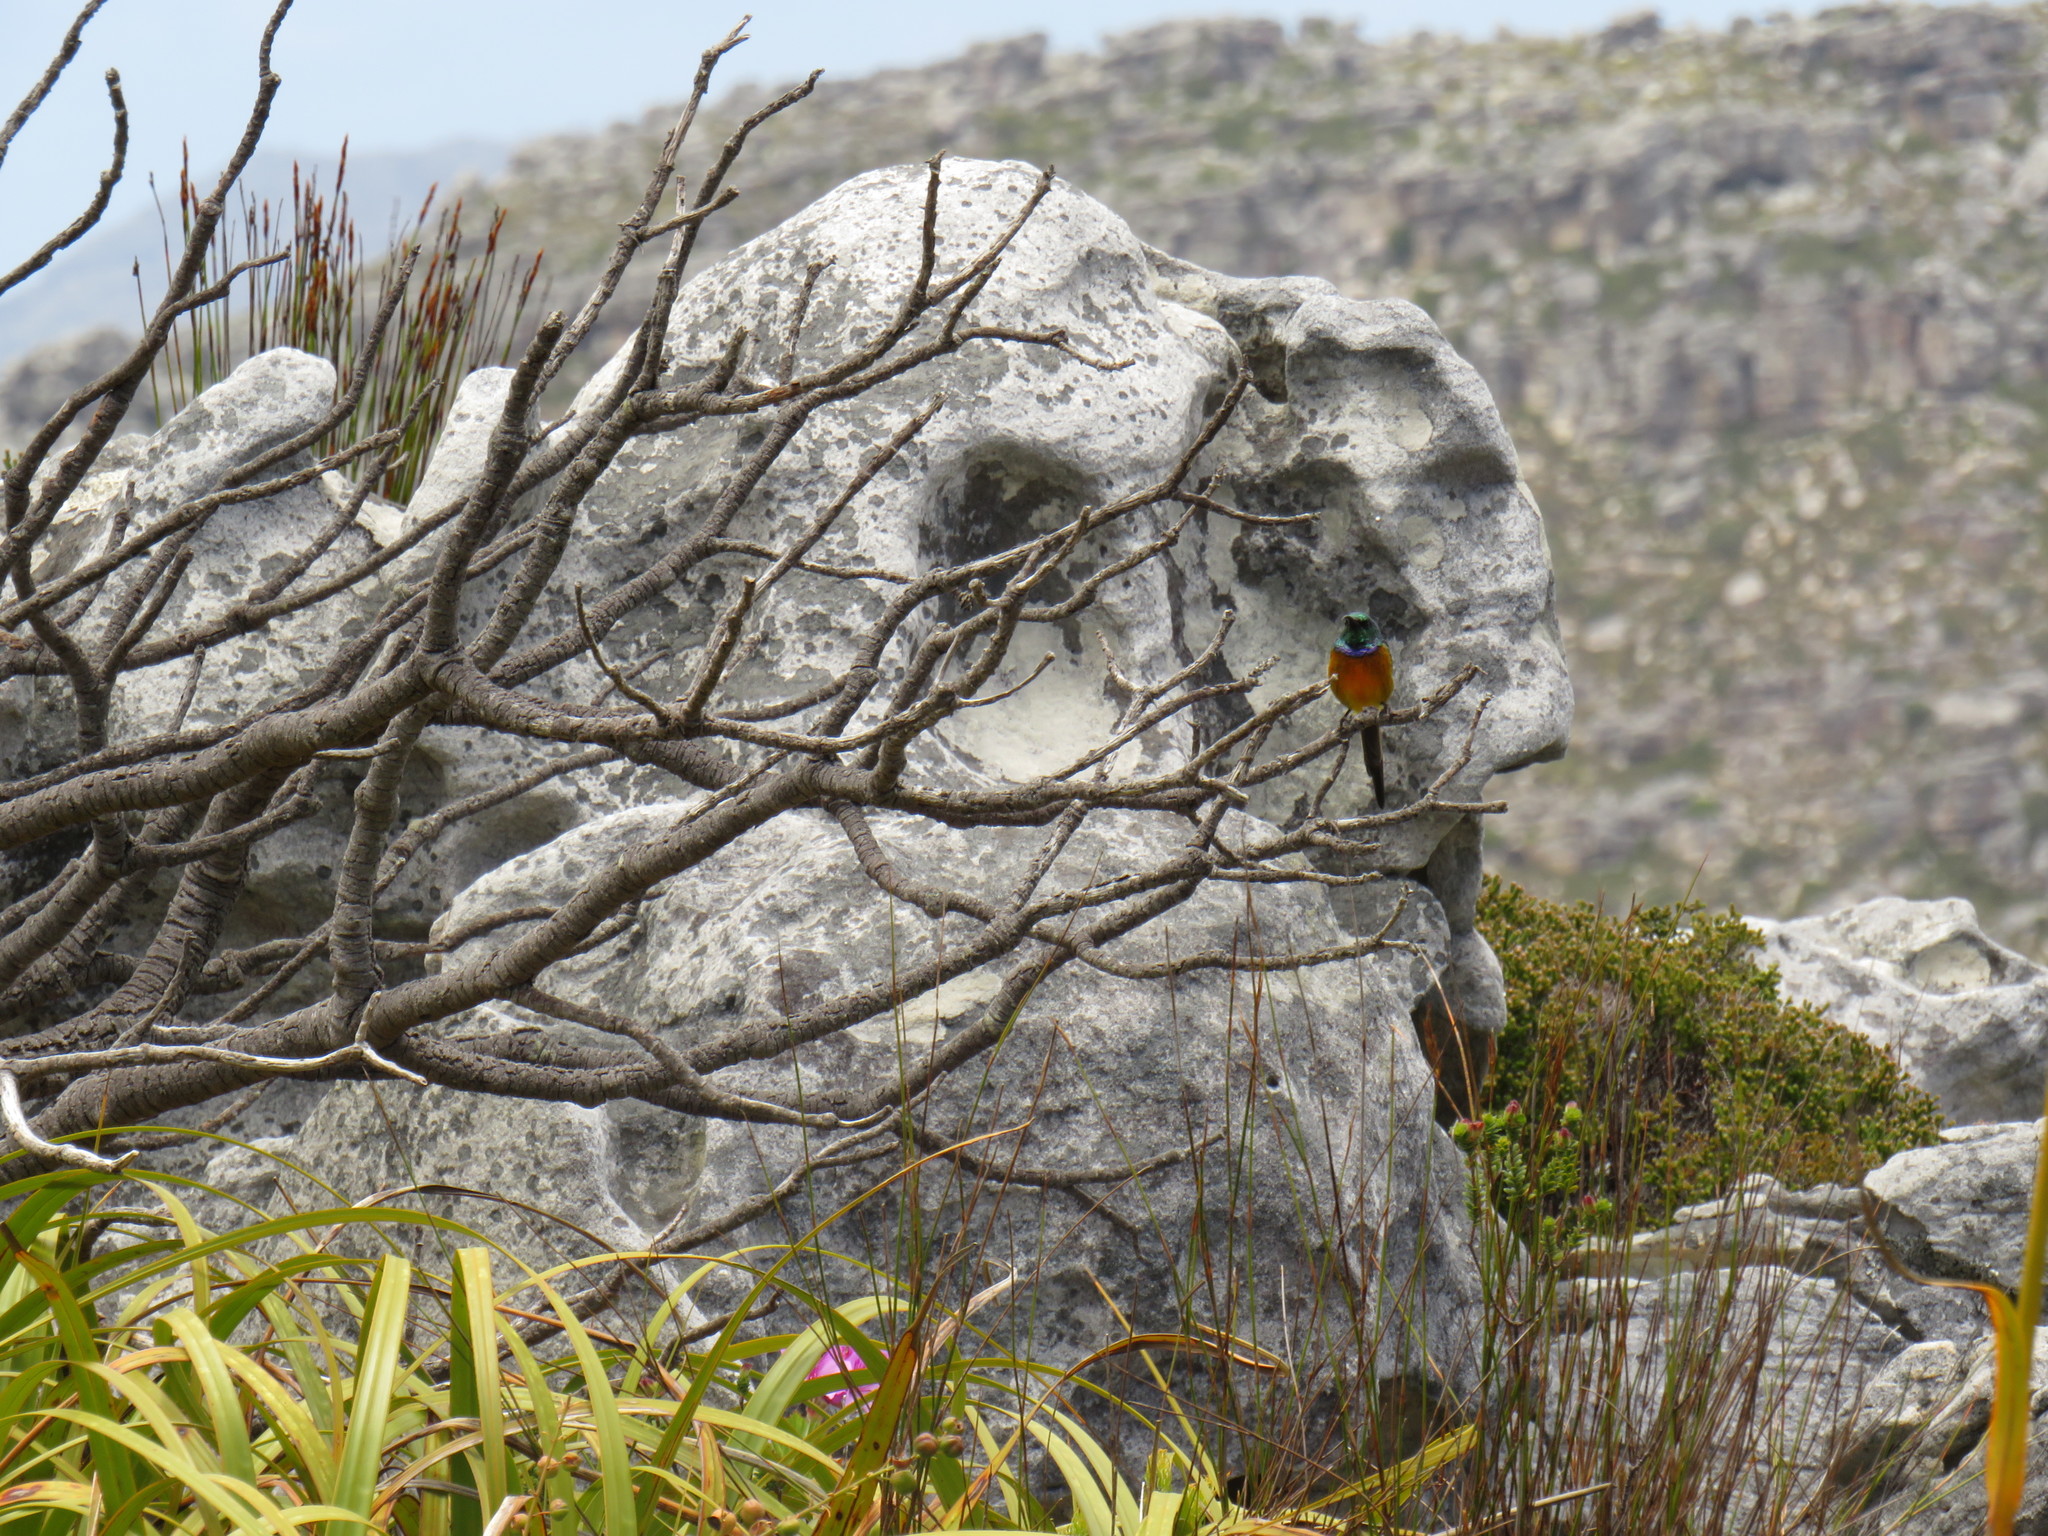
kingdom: Animalia
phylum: Chordata
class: Aves
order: Passeriformes
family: Nectariniidae
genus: Anthobaphes
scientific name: Anthobaphes violacea
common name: Orange-breasted sunbird
